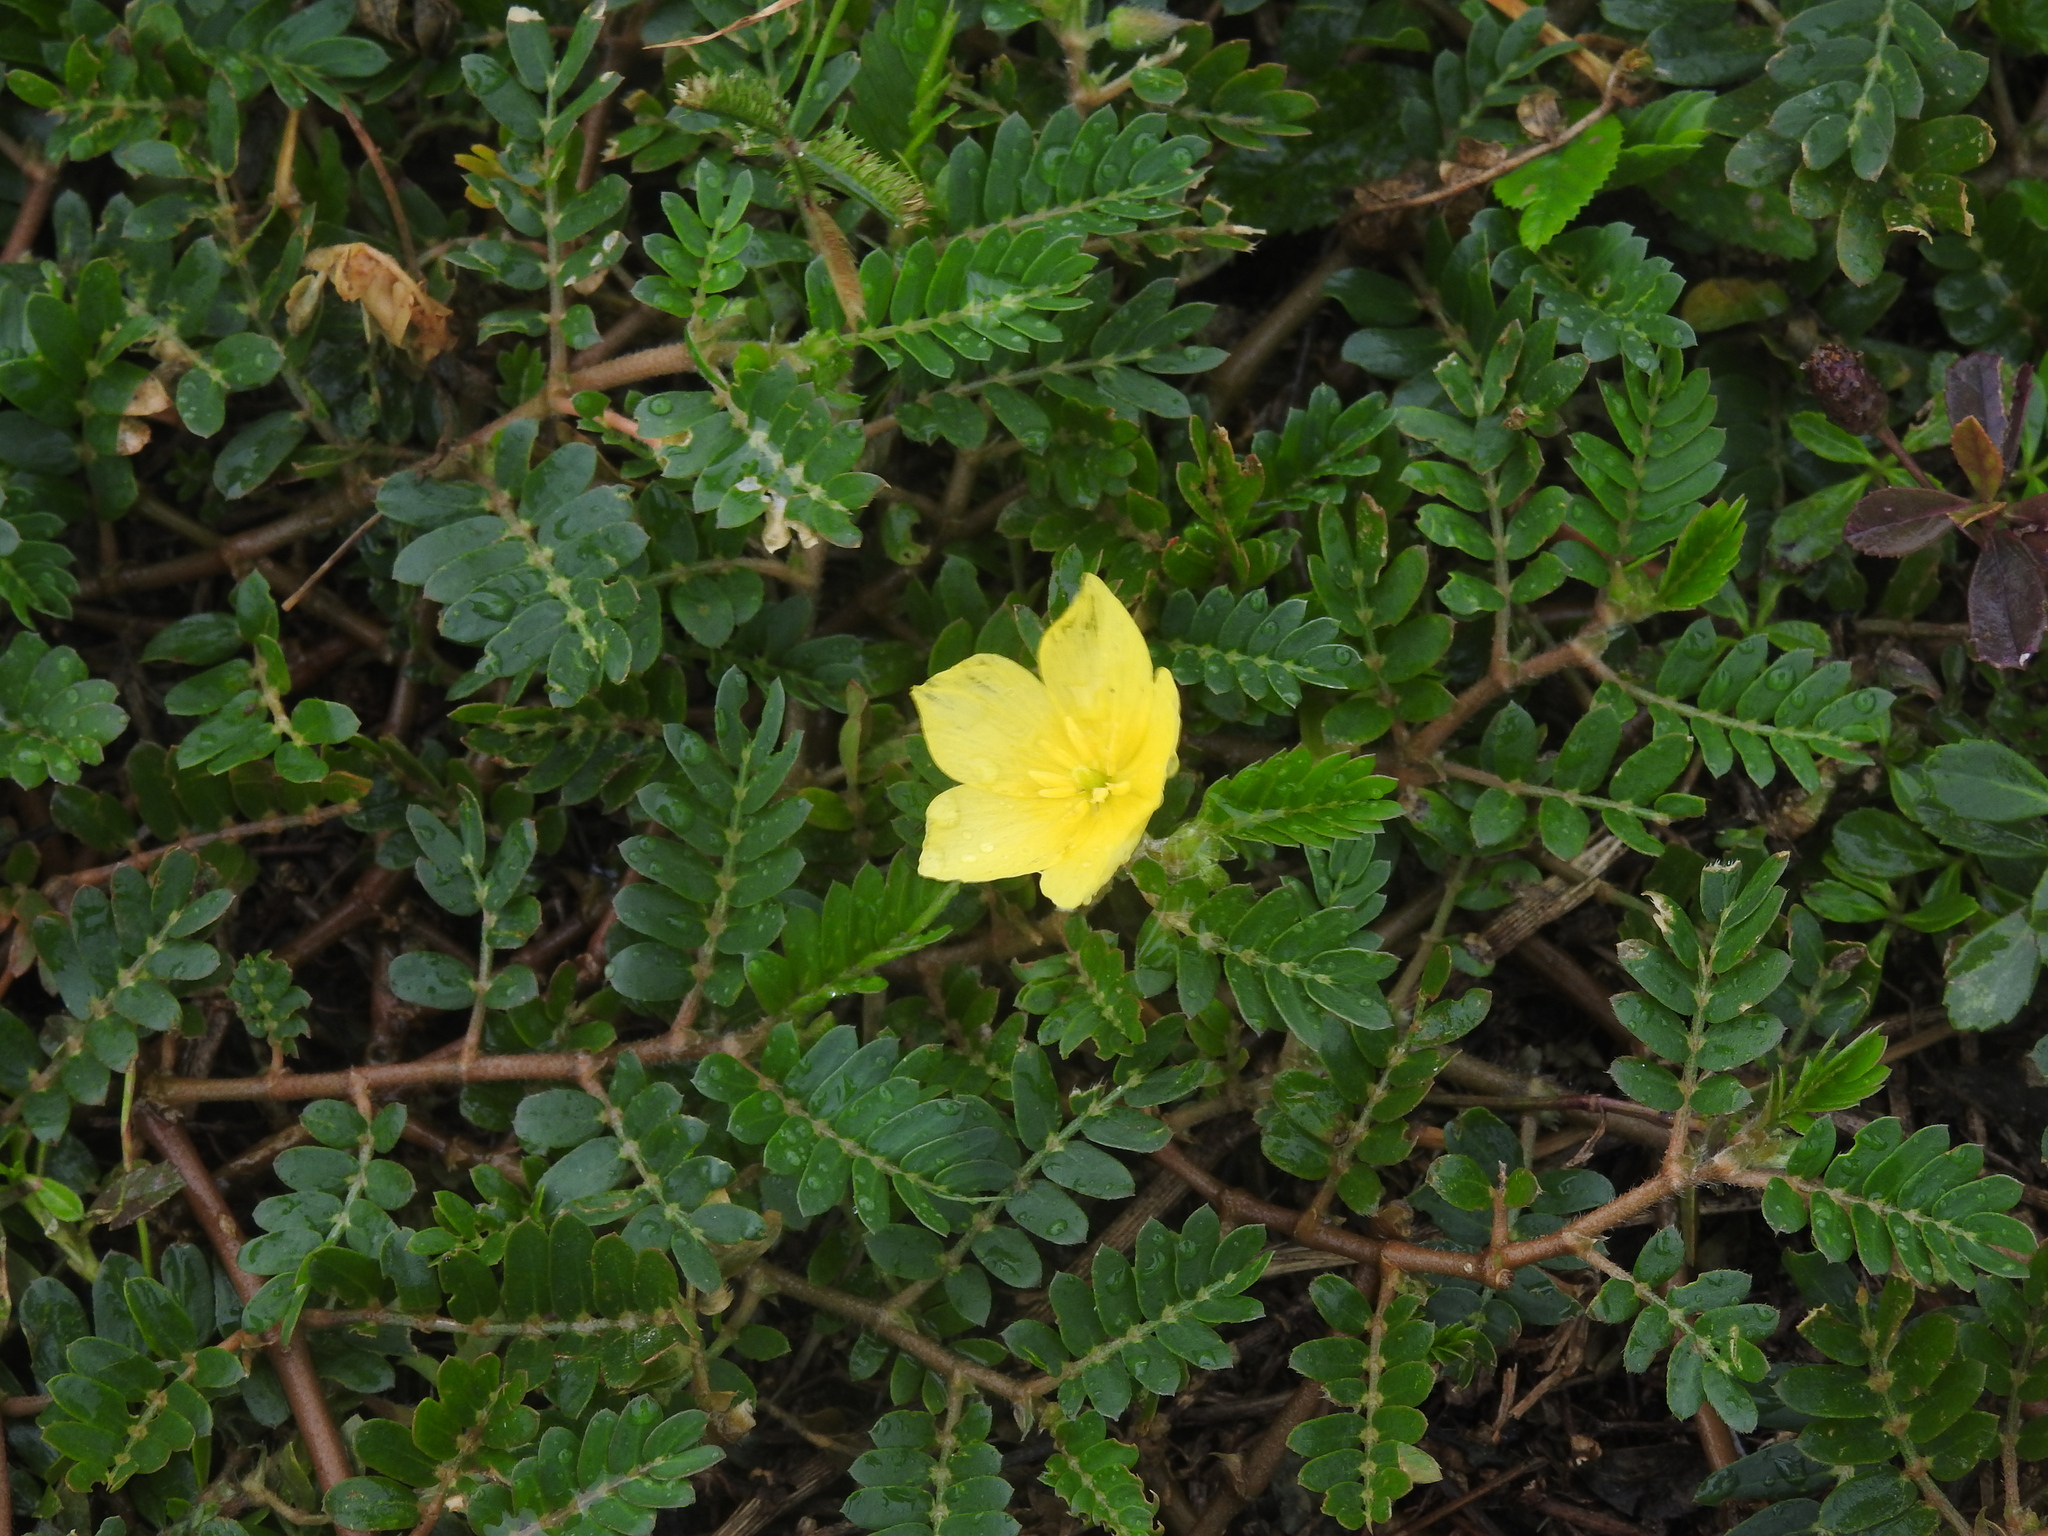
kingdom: Plantae
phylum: Tracheophyta
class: Magnoliopsida
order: Zygophyllales
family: Zygophyllaceae
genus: Tribulus
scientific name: Tribulus cistoides
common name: Jamaican feverplant
